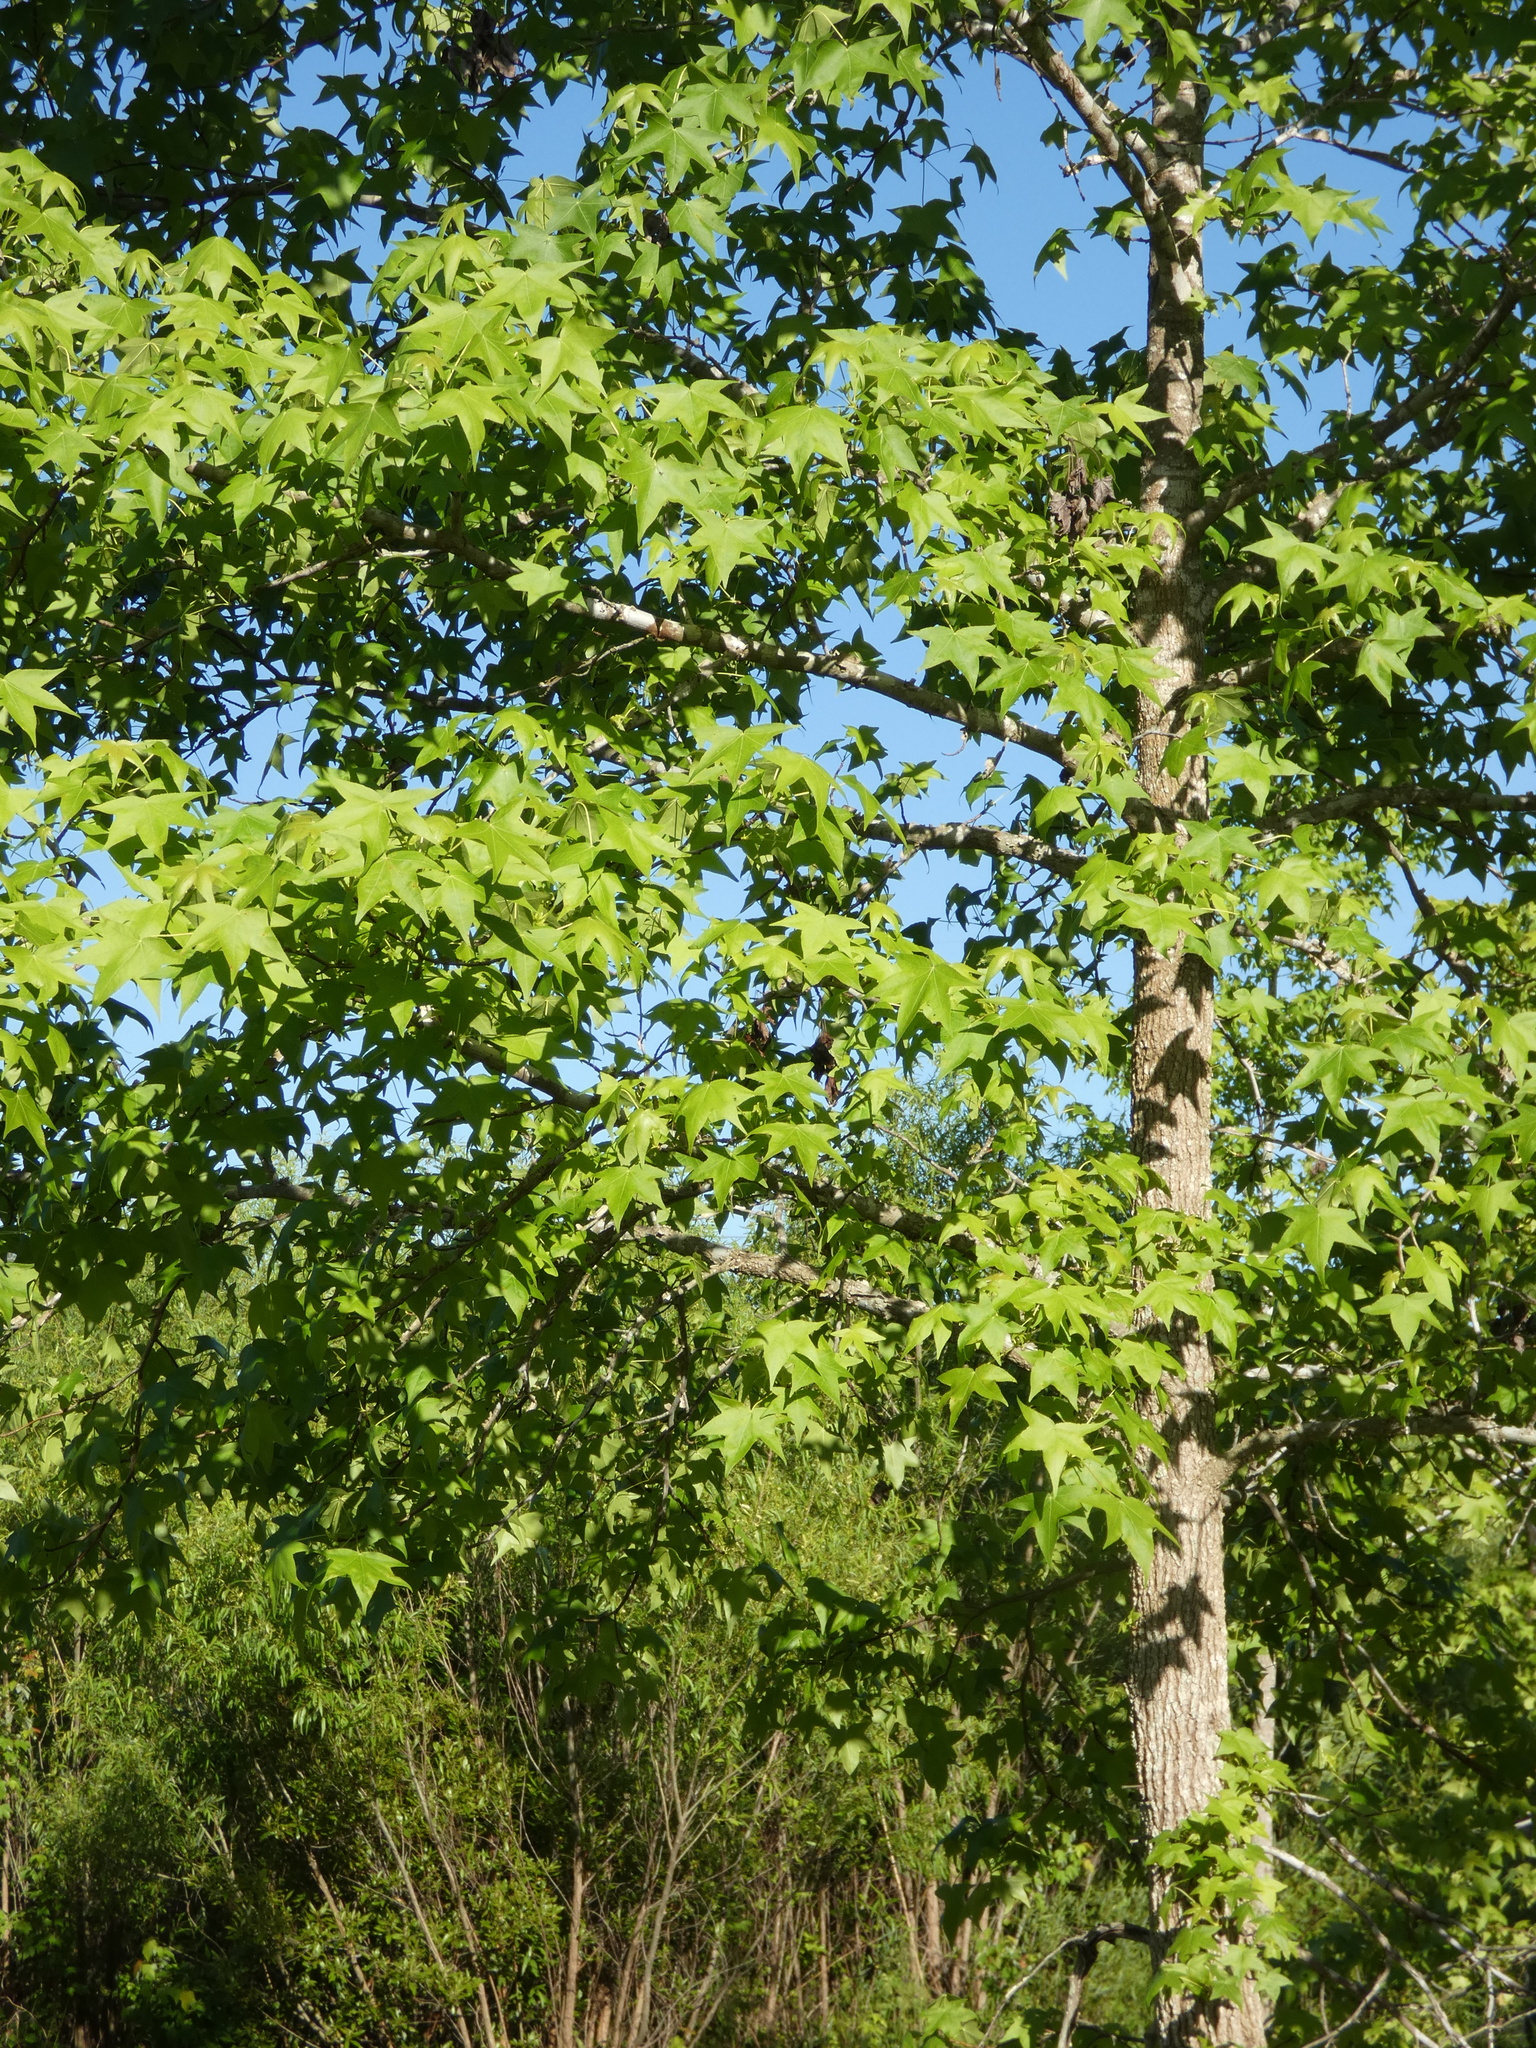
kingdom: Plantae
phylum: Tracheophyta
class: Magnoliopsida
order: Saxifragales
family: Altingiaceae
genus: Liquidambar
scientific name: Liquidambar styraciflua
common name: Sweet gum
